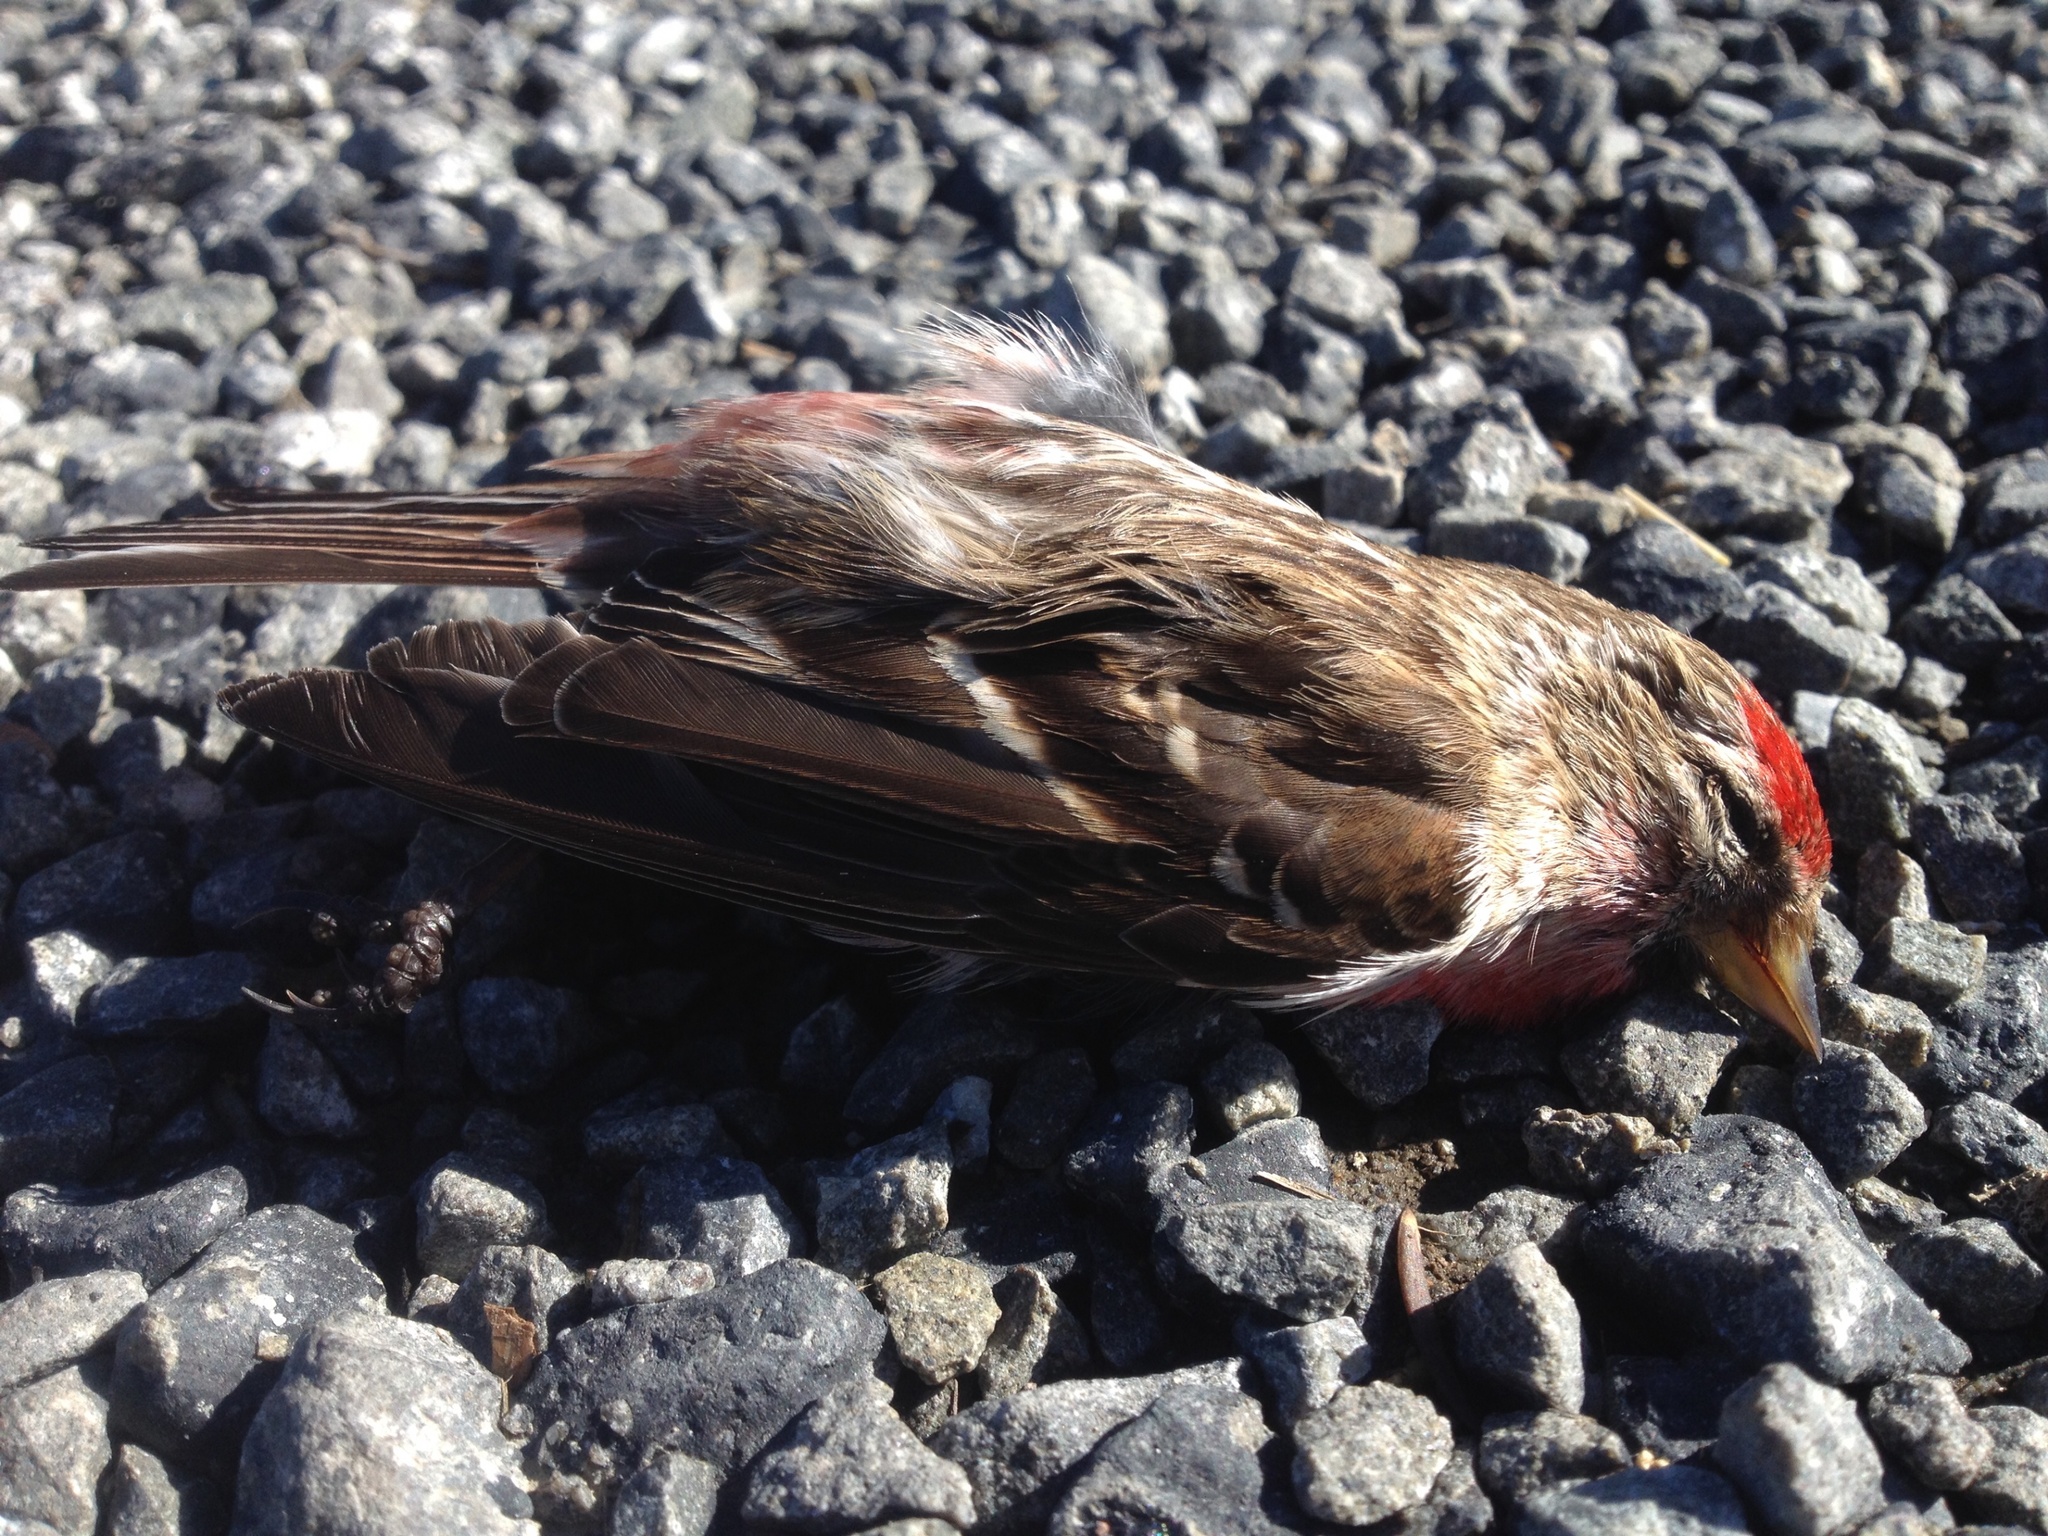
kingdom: Animalia
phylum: Chordata
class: Aves
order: Passeriformes
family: Fringillidae
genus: Acanthis
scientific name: Acanthis flammea
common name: Common redpoll
